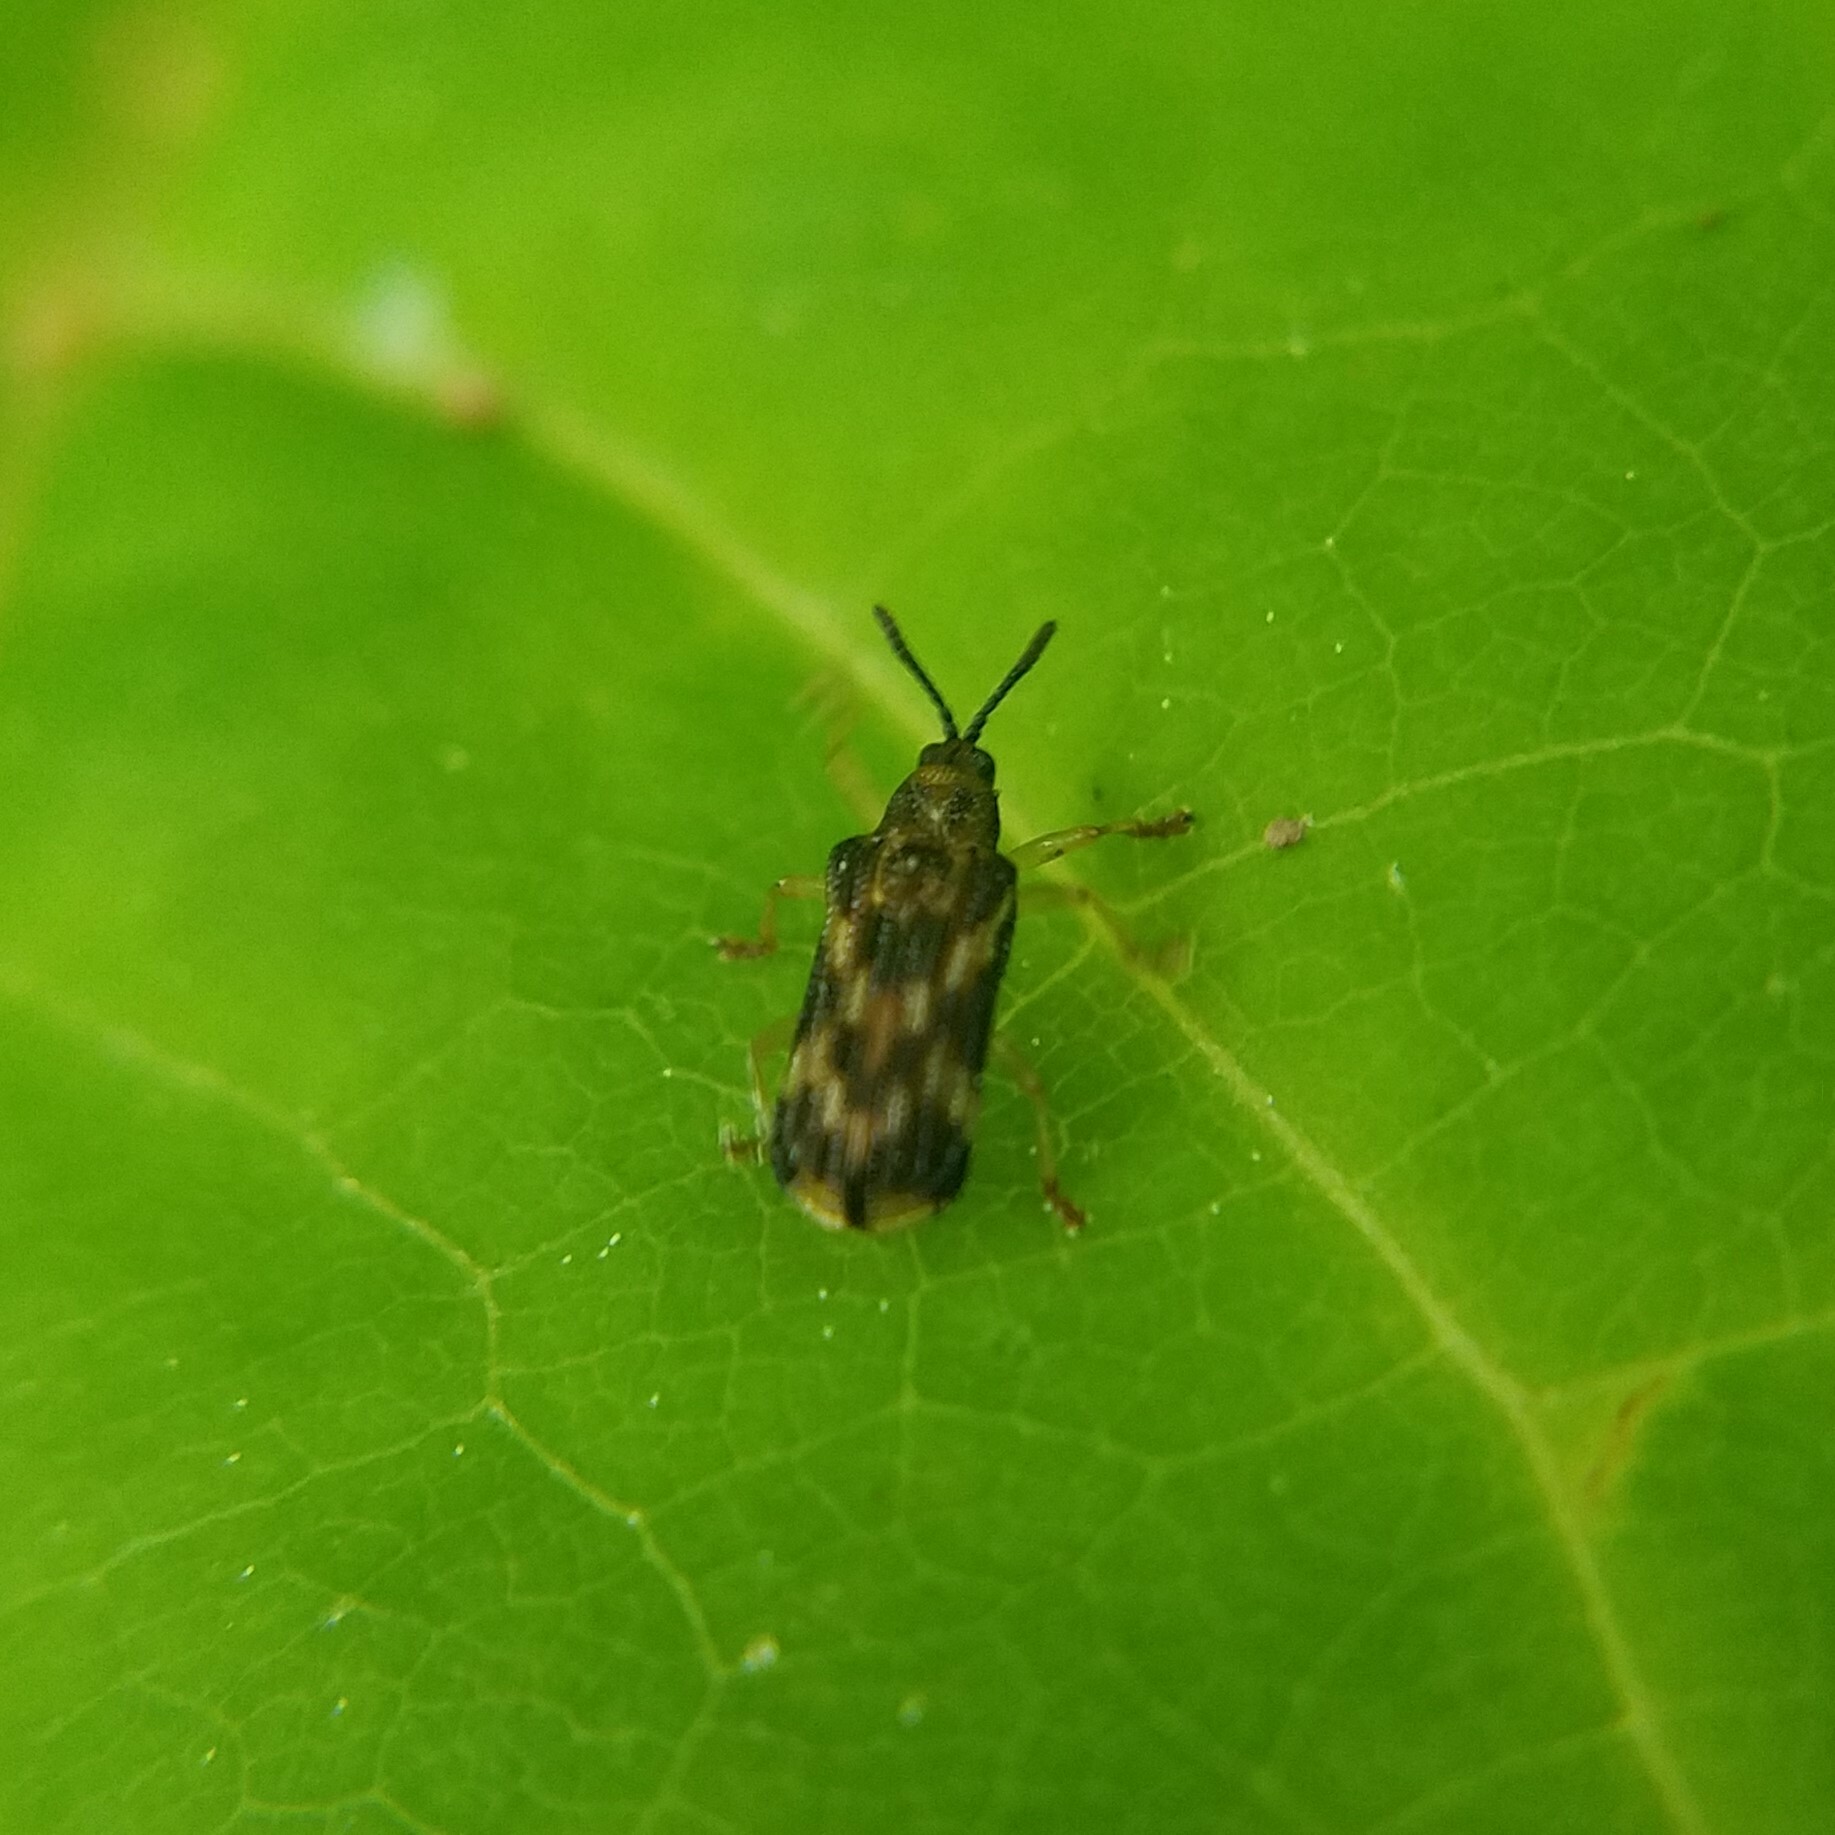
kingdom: Animalia
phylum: Arthropoda
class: Insecta
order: Coleoptera
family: Chrysomelidae
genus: Sumitrosis
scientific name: Sumitrosis inaequalis
